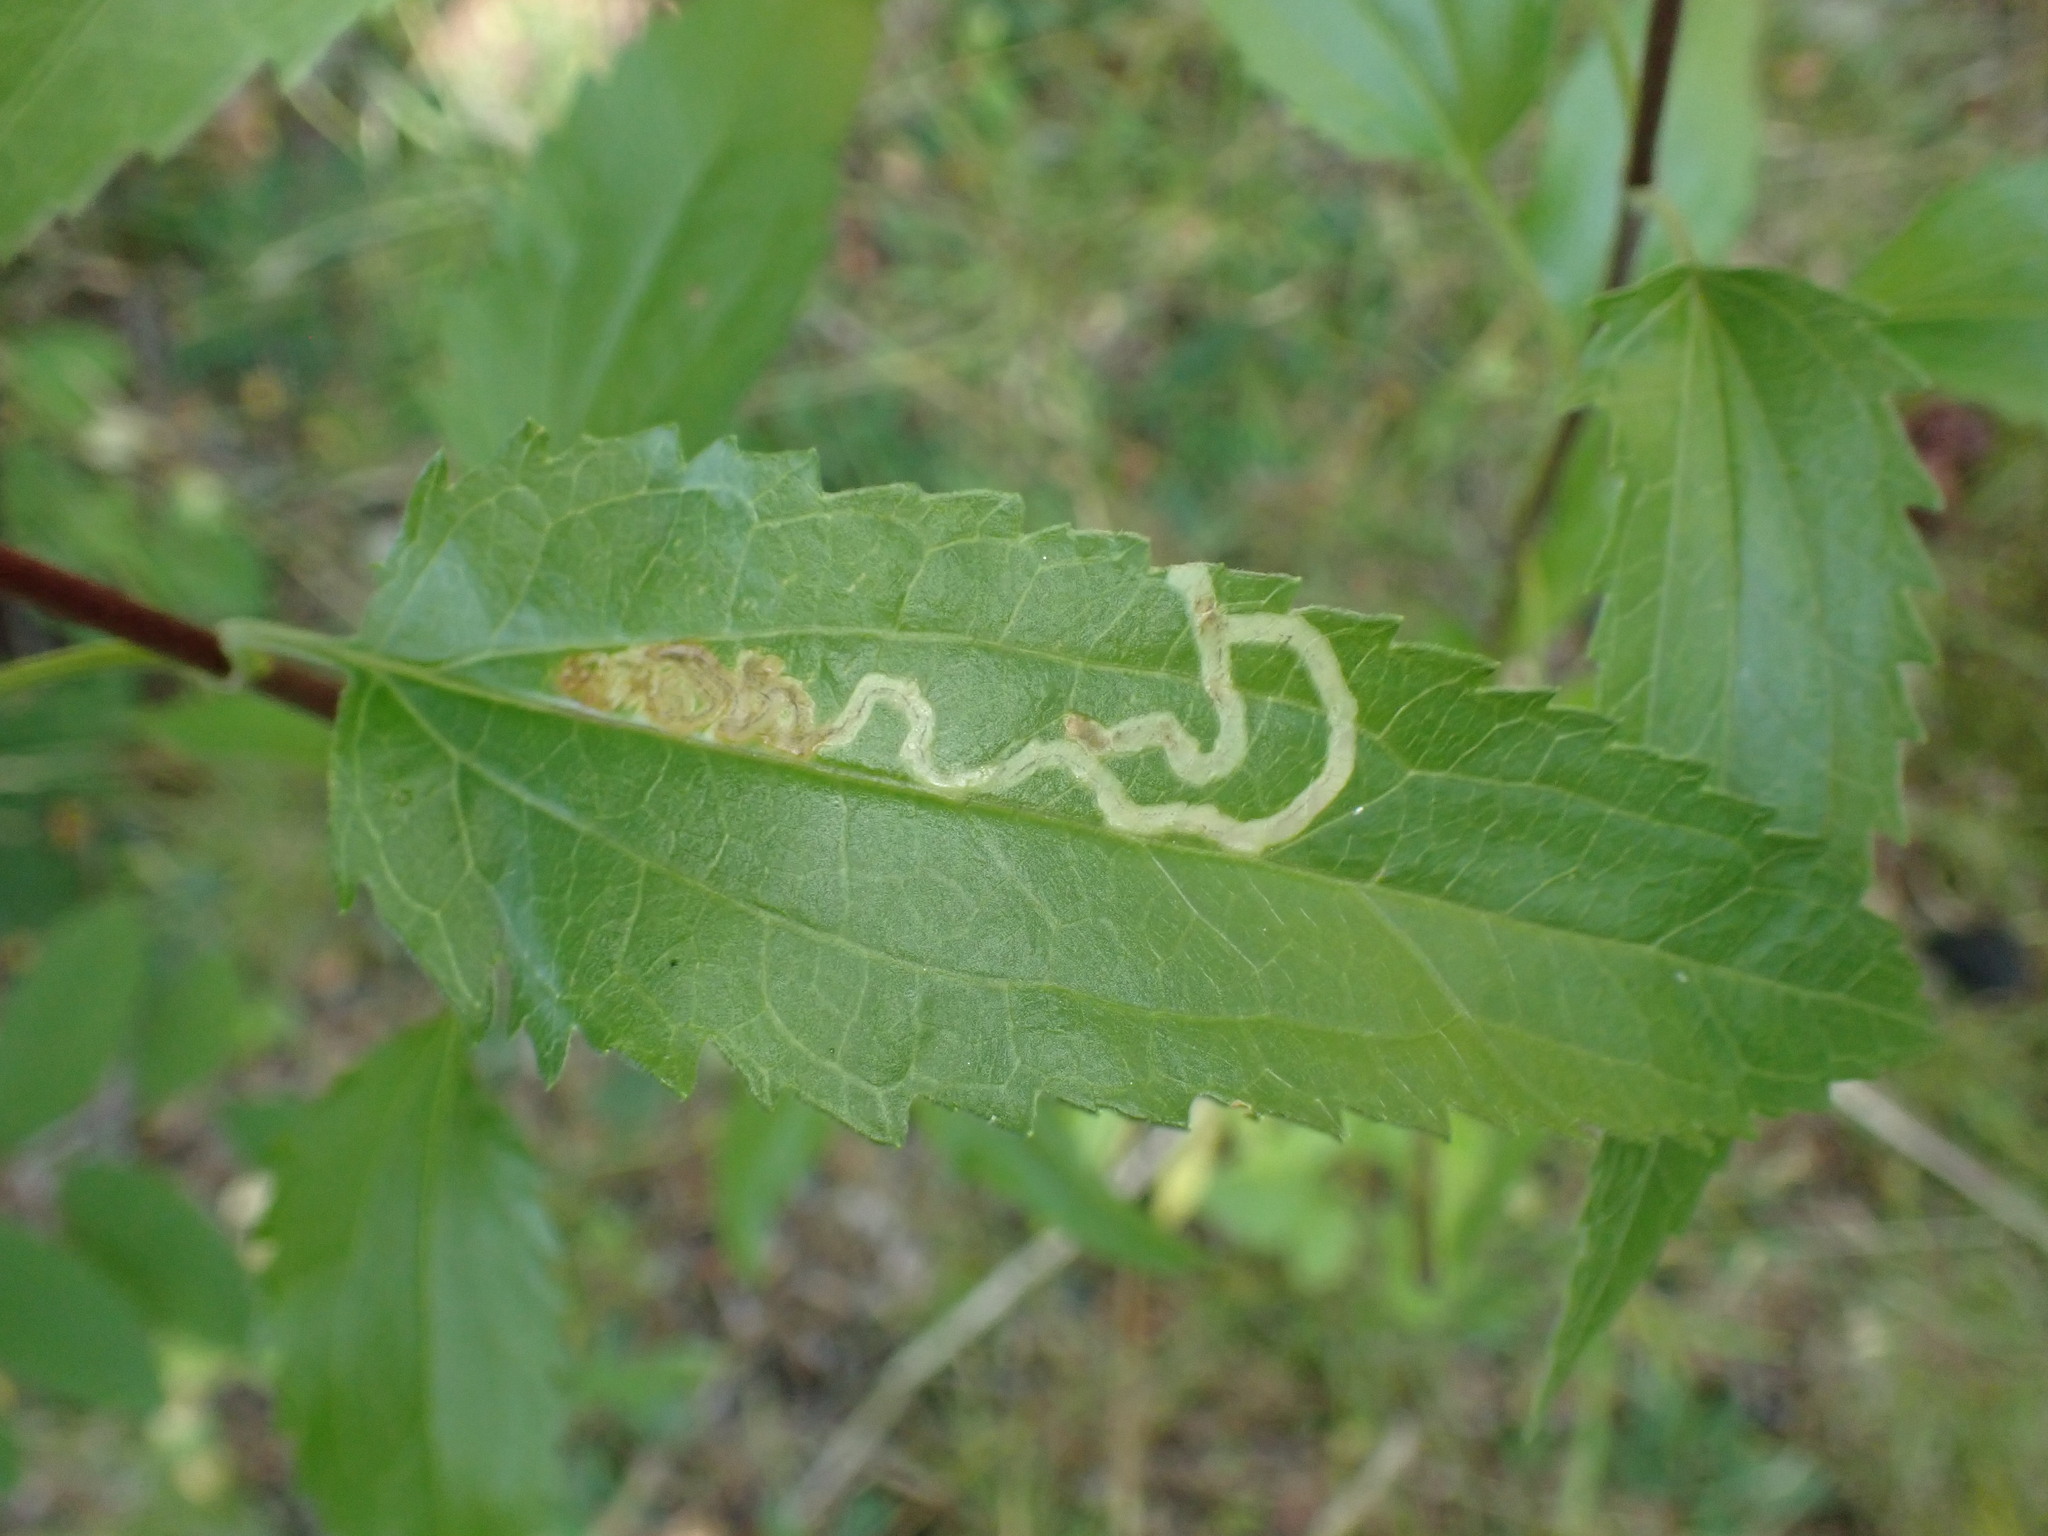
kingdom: Animalia
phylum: Arthropoda
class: Insecta
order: Diptera
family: Agromyzidae
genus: Liriomyza
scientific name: Liriomyza cracentis
